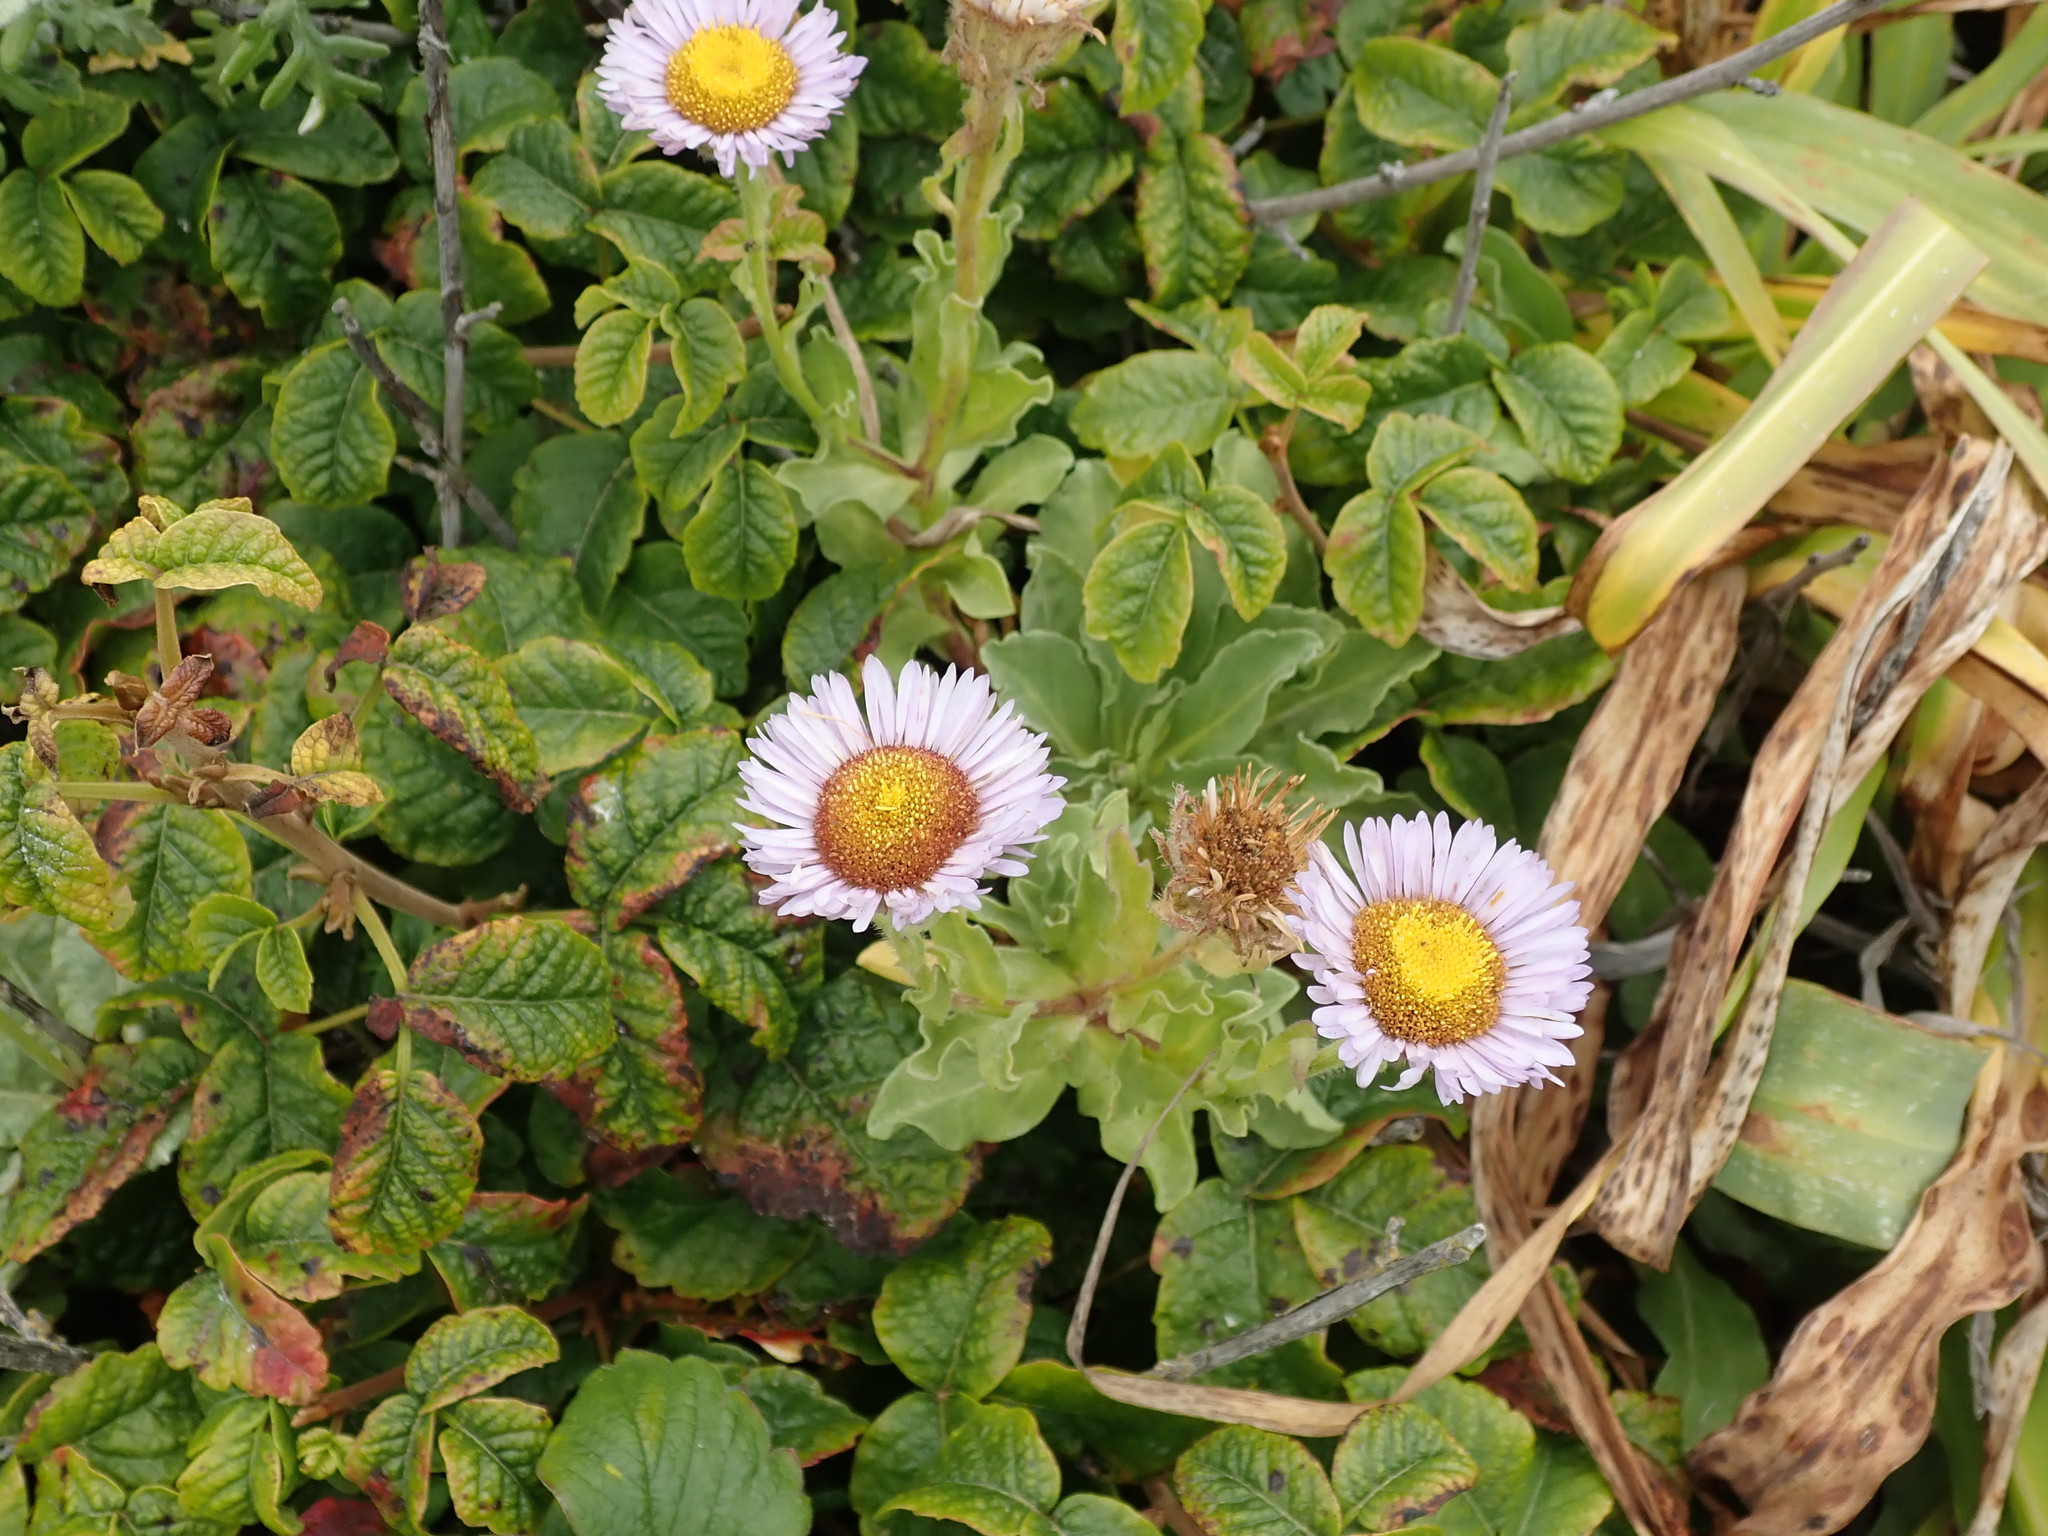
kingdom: Plantae
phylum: Tracheophyta
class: Magnoliopsida
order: Asterales
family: Asteraceae
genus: Erigeron
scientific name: Erigeron glaucus
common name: Seaside daisy
